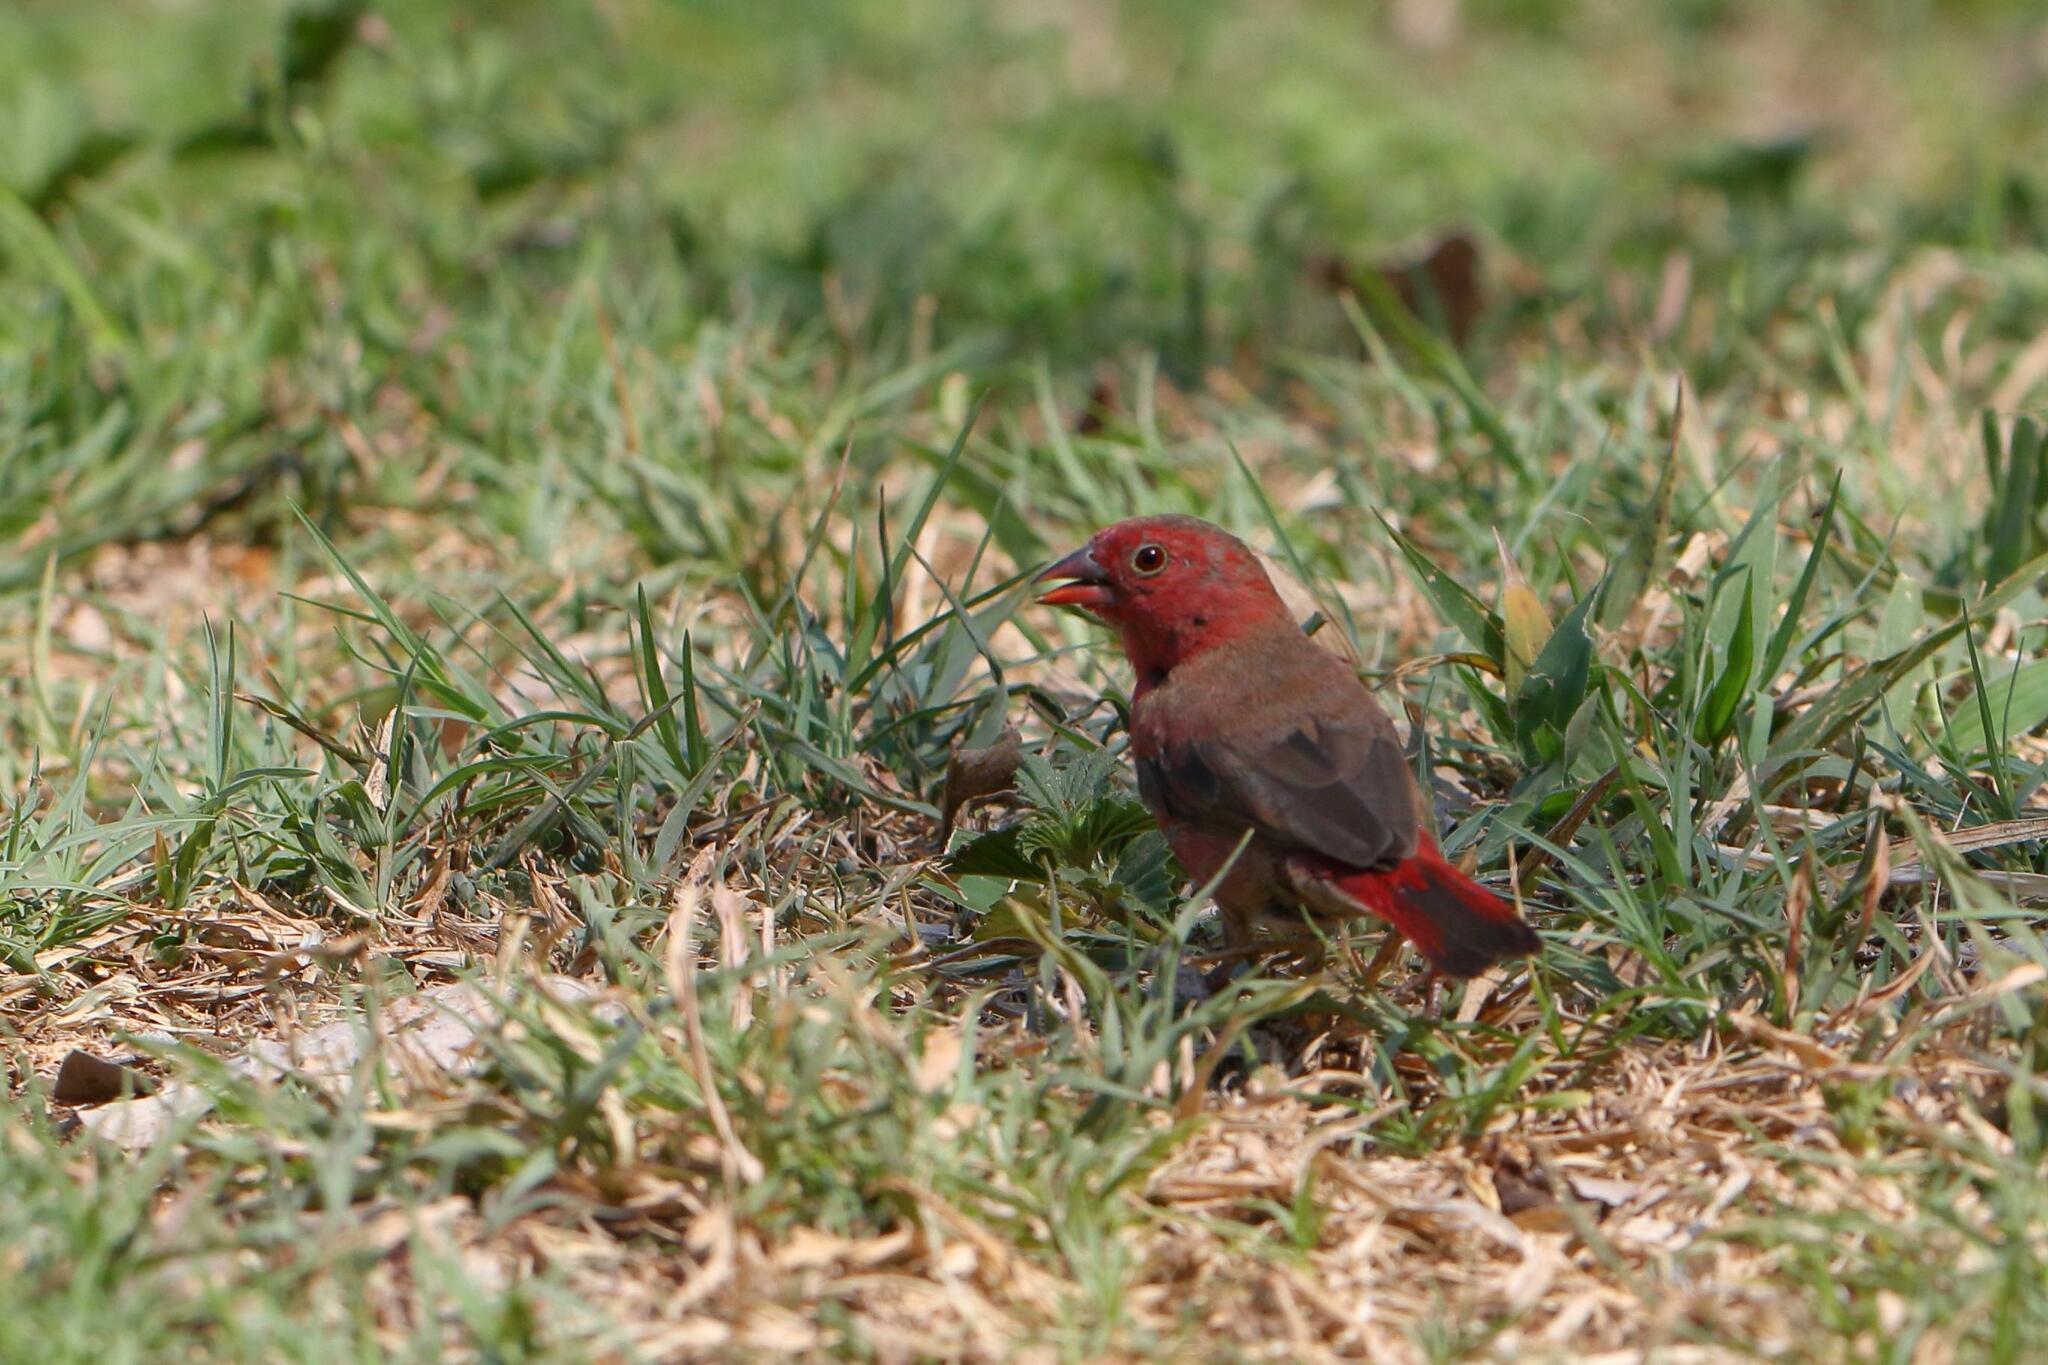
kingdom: Animalia
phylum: Chordata
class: Aves
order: Passeriformes
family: Estrildidae
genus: Lagonosticta
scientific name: Lagonosticta senegala
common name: Red-billed firefinch
